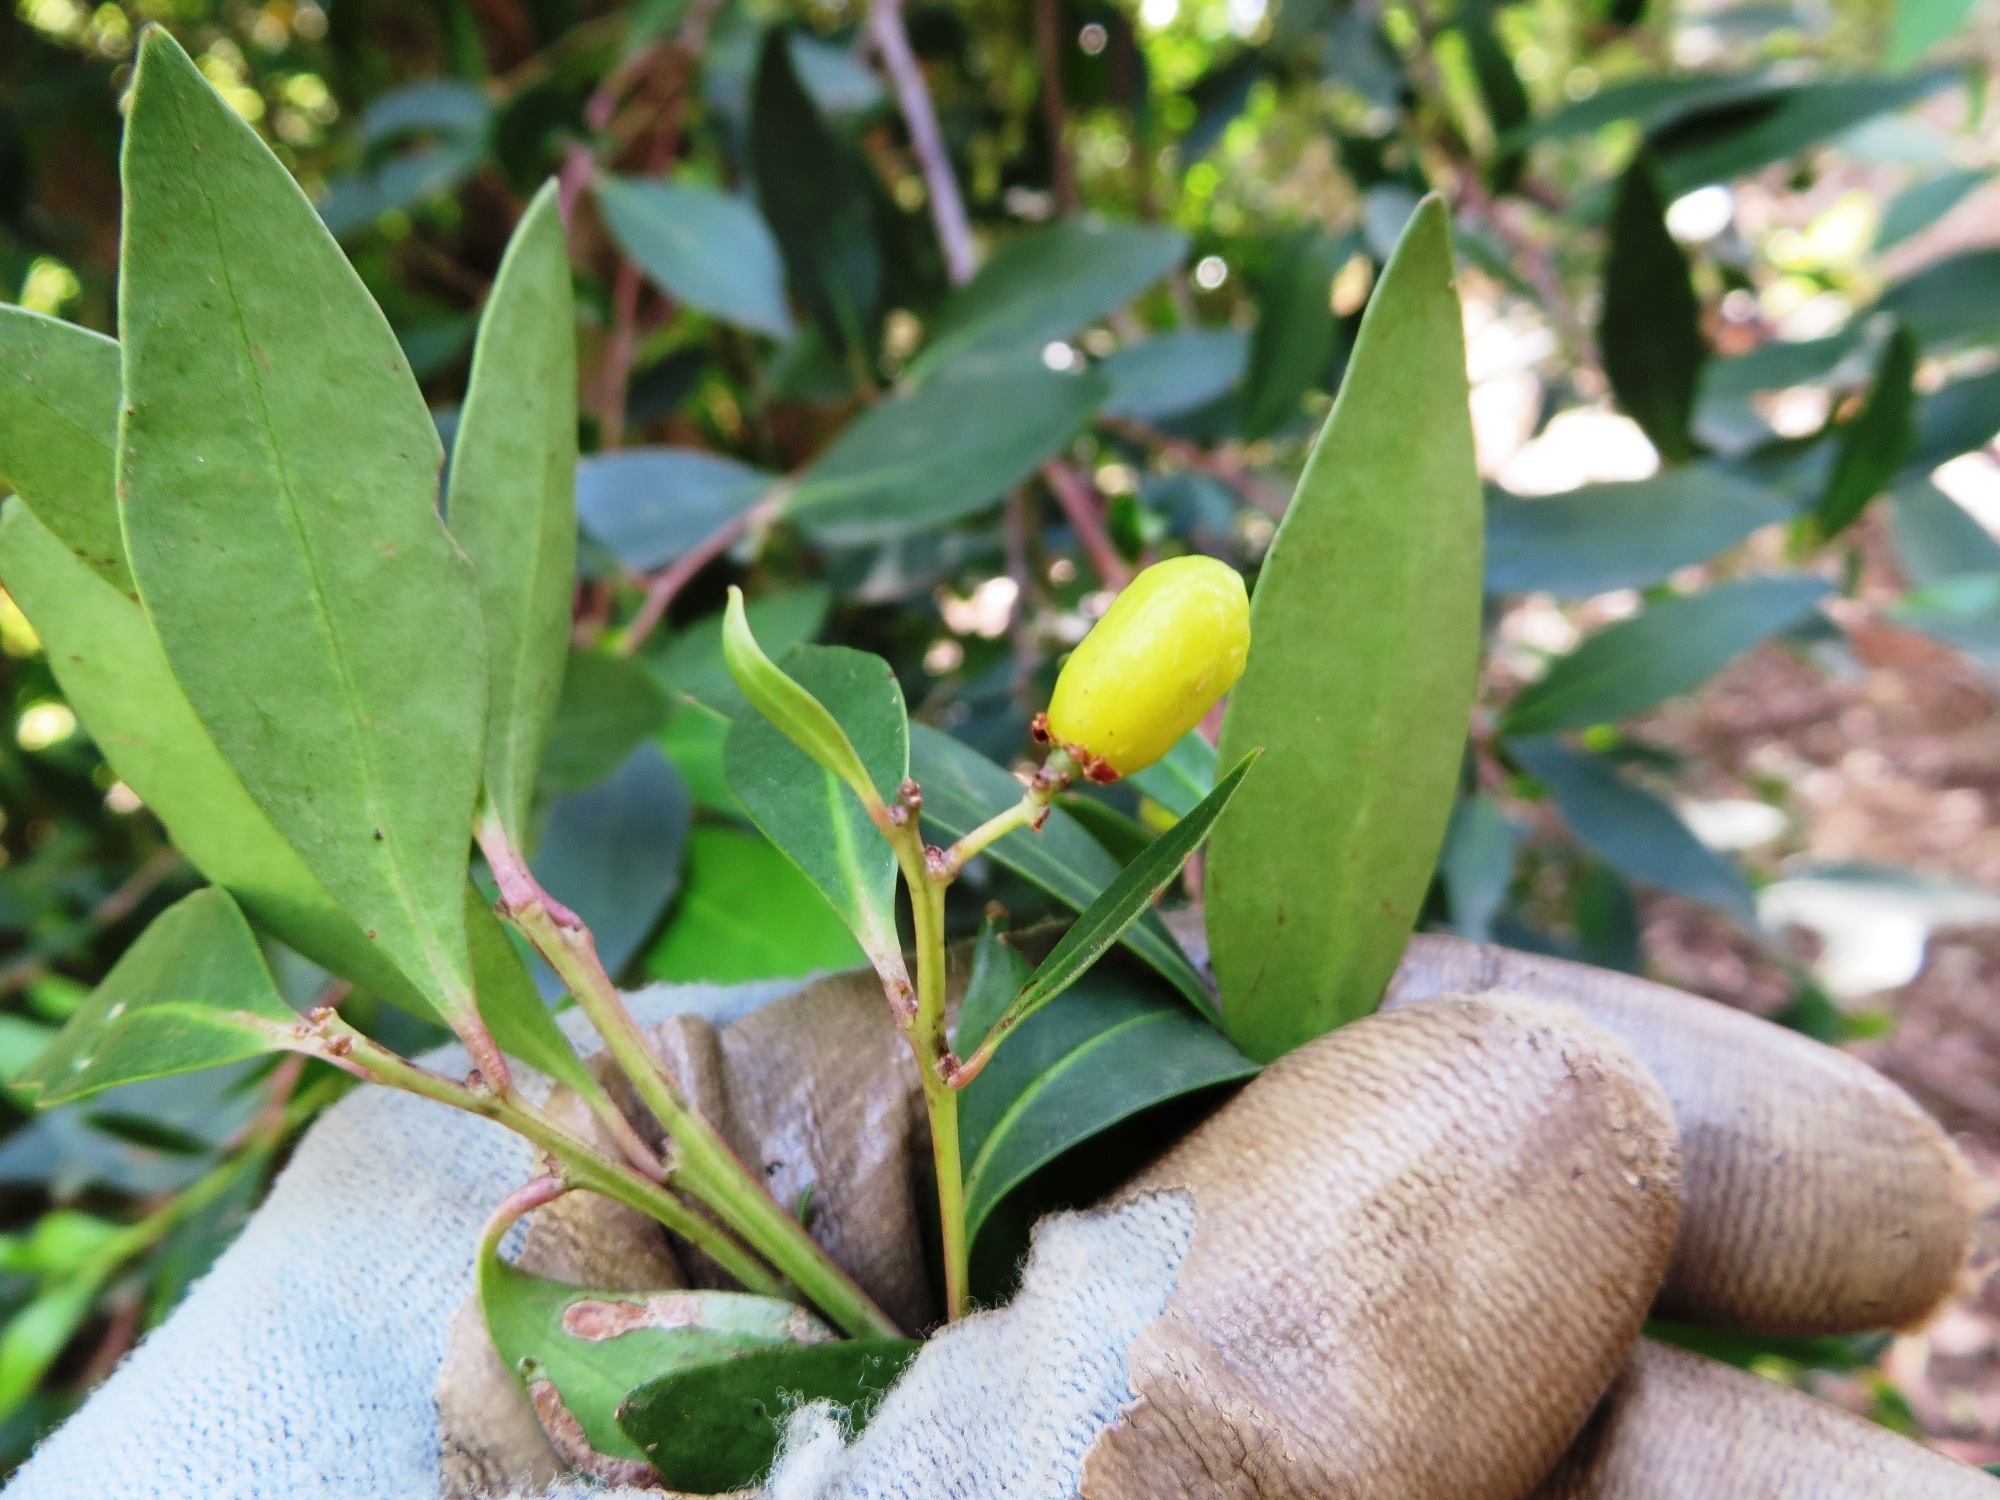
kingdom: Plantae
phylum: Tracheophyta
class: Magnoliopsida
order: Celastrales
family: Celastraceae
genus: Gymnosporia
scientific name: Gymnosporia laurina
